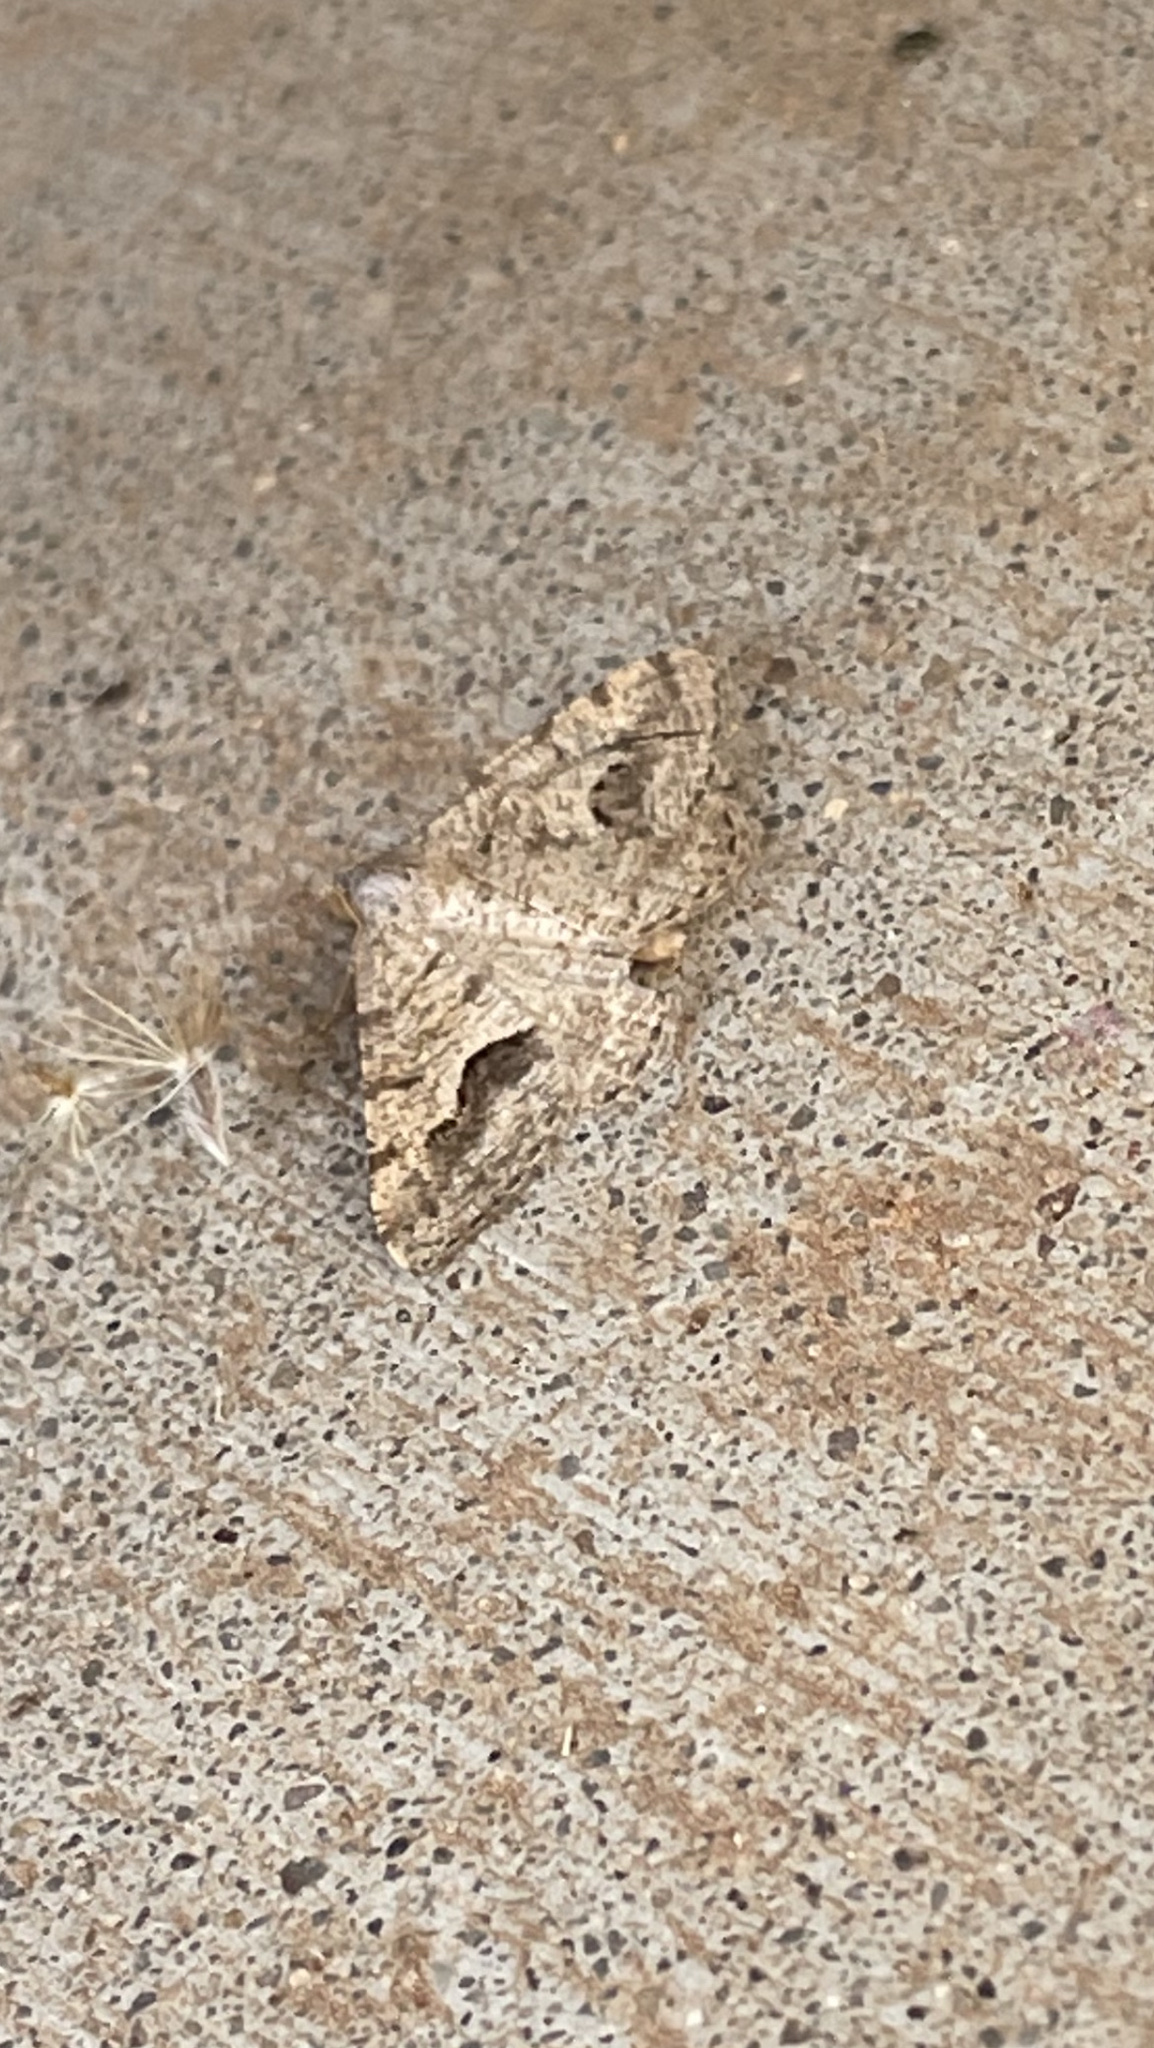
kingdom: Animalia
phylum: Arthropoda
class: Insecta
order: Lepidoptera
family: Geometridae
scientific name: Geometridae
